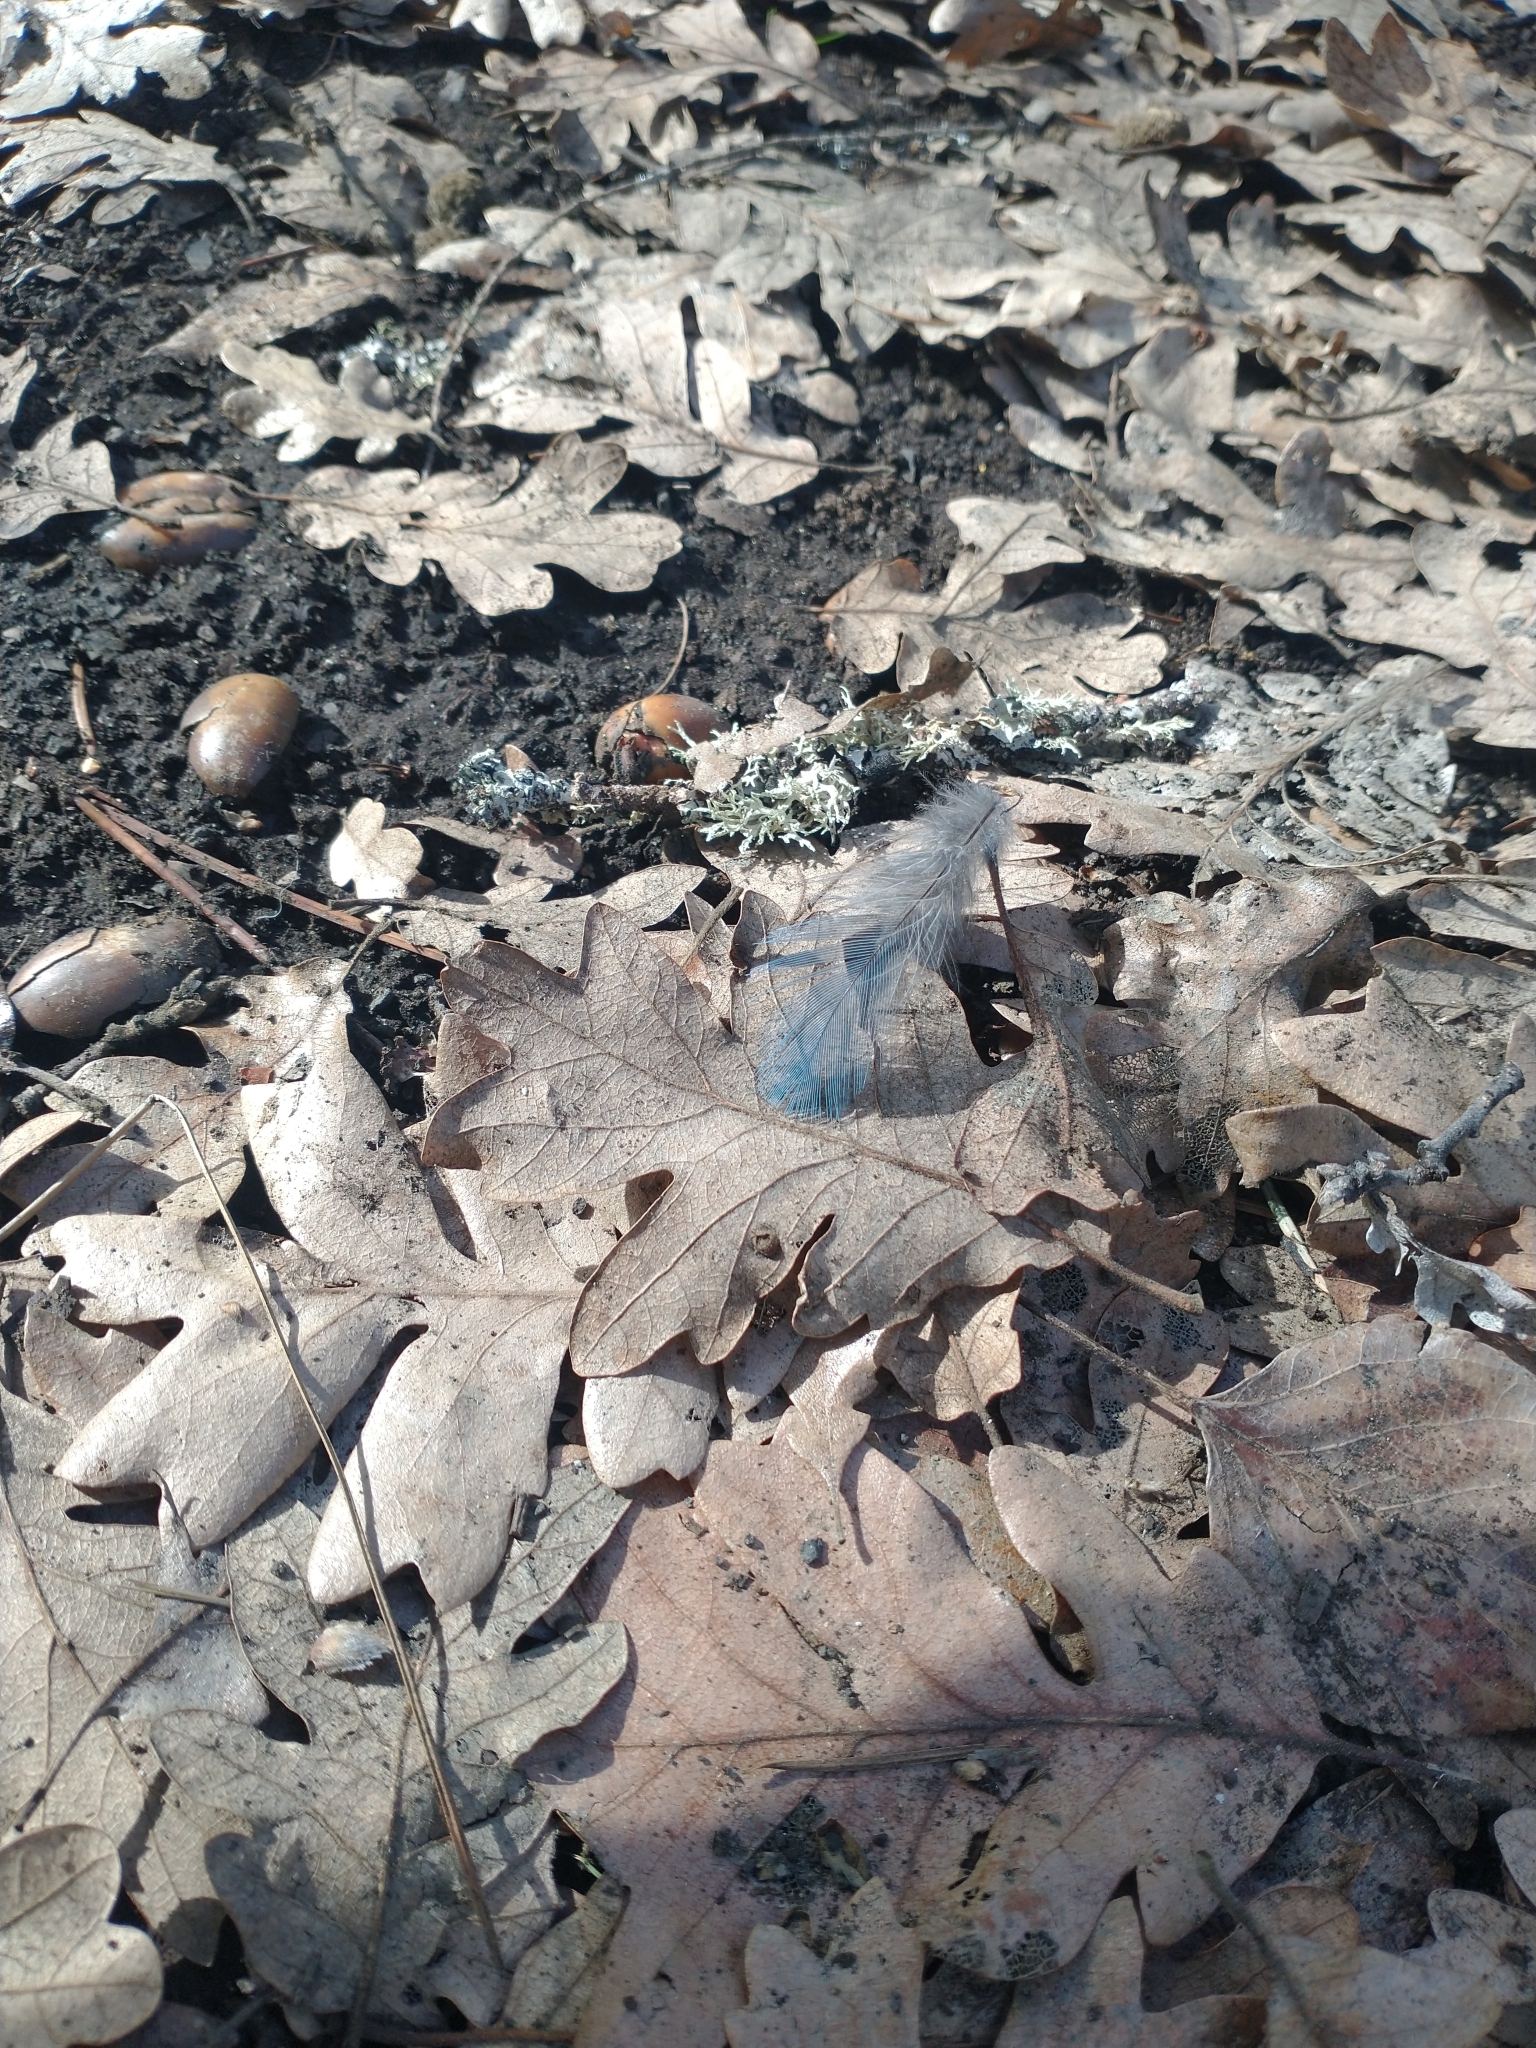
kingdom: Plantae
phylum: Tracheophyta
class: Magnoliopsida
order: Fagales
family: Fagaceae
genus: Quercus
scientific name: Quercus garryana
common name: Garry oak
